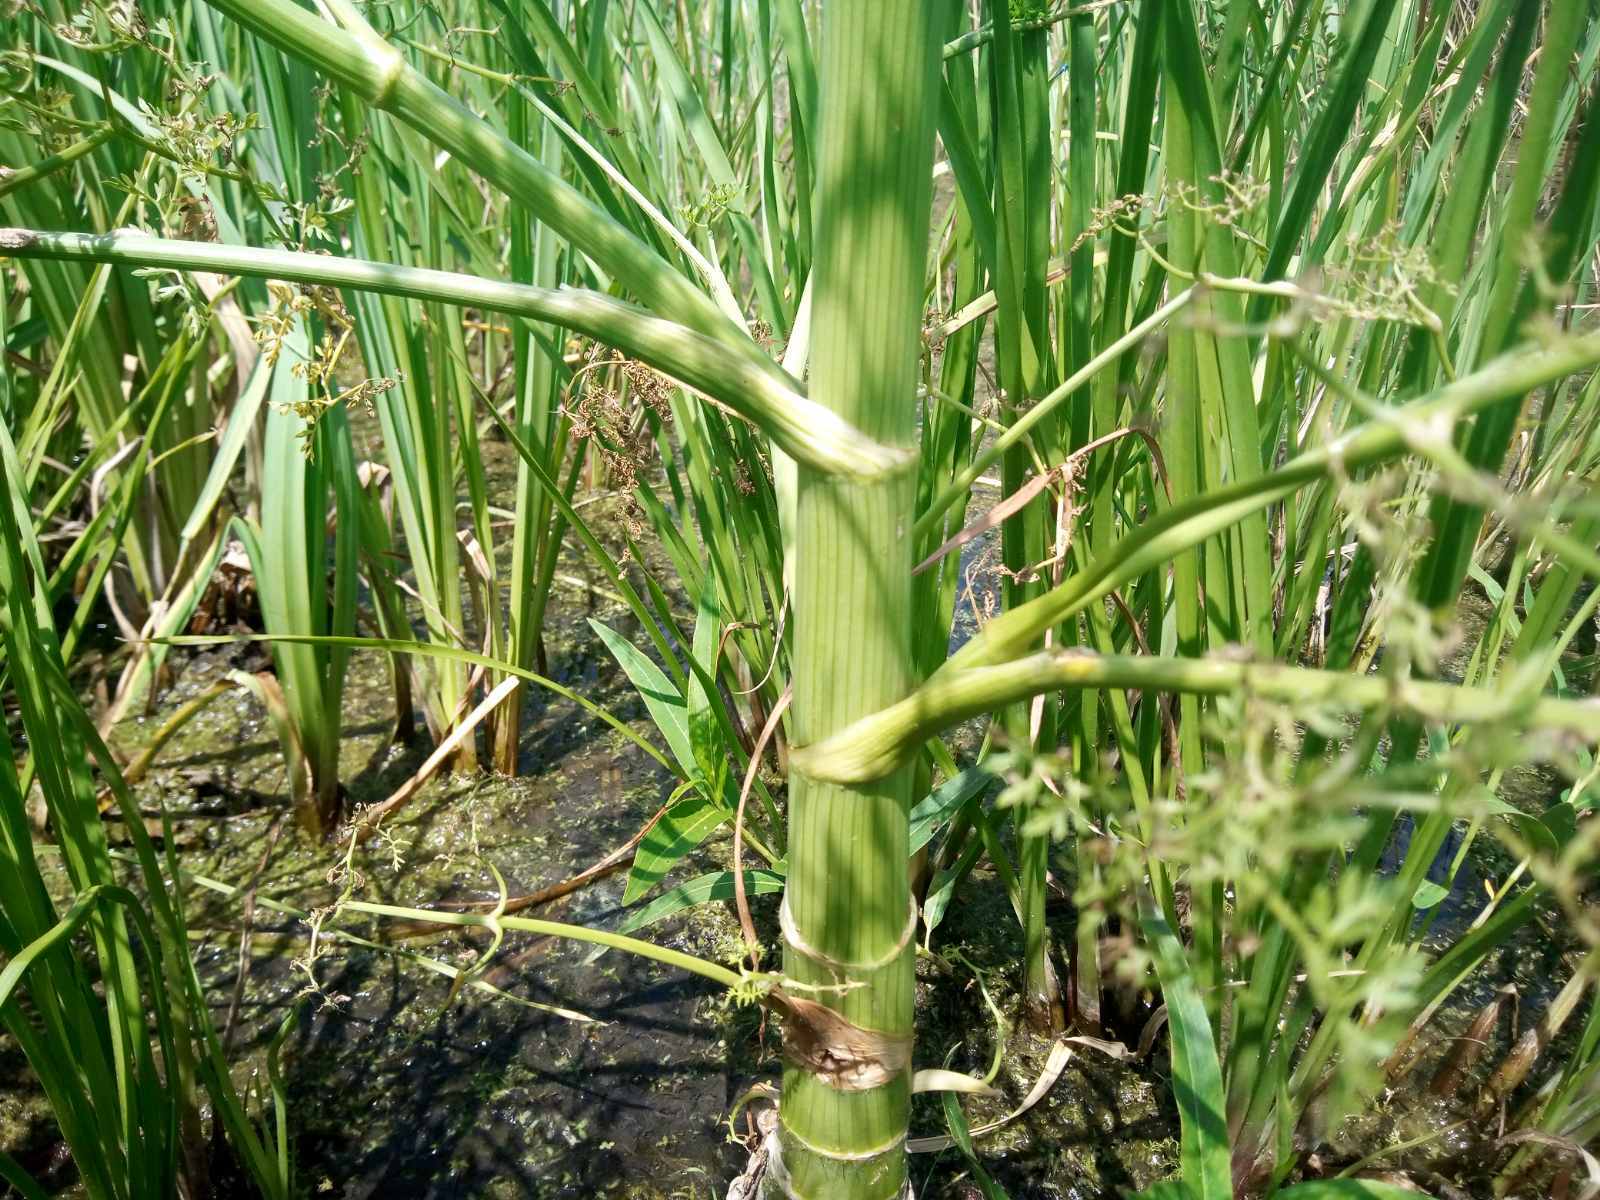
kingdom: Plantae
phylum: Tracheophyta
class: Magnoliopsida
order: Apiales
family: Apiaceae
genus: Oenanthe
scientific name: Oenanthe aquatica
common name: Fine-leaved water-dropwort
